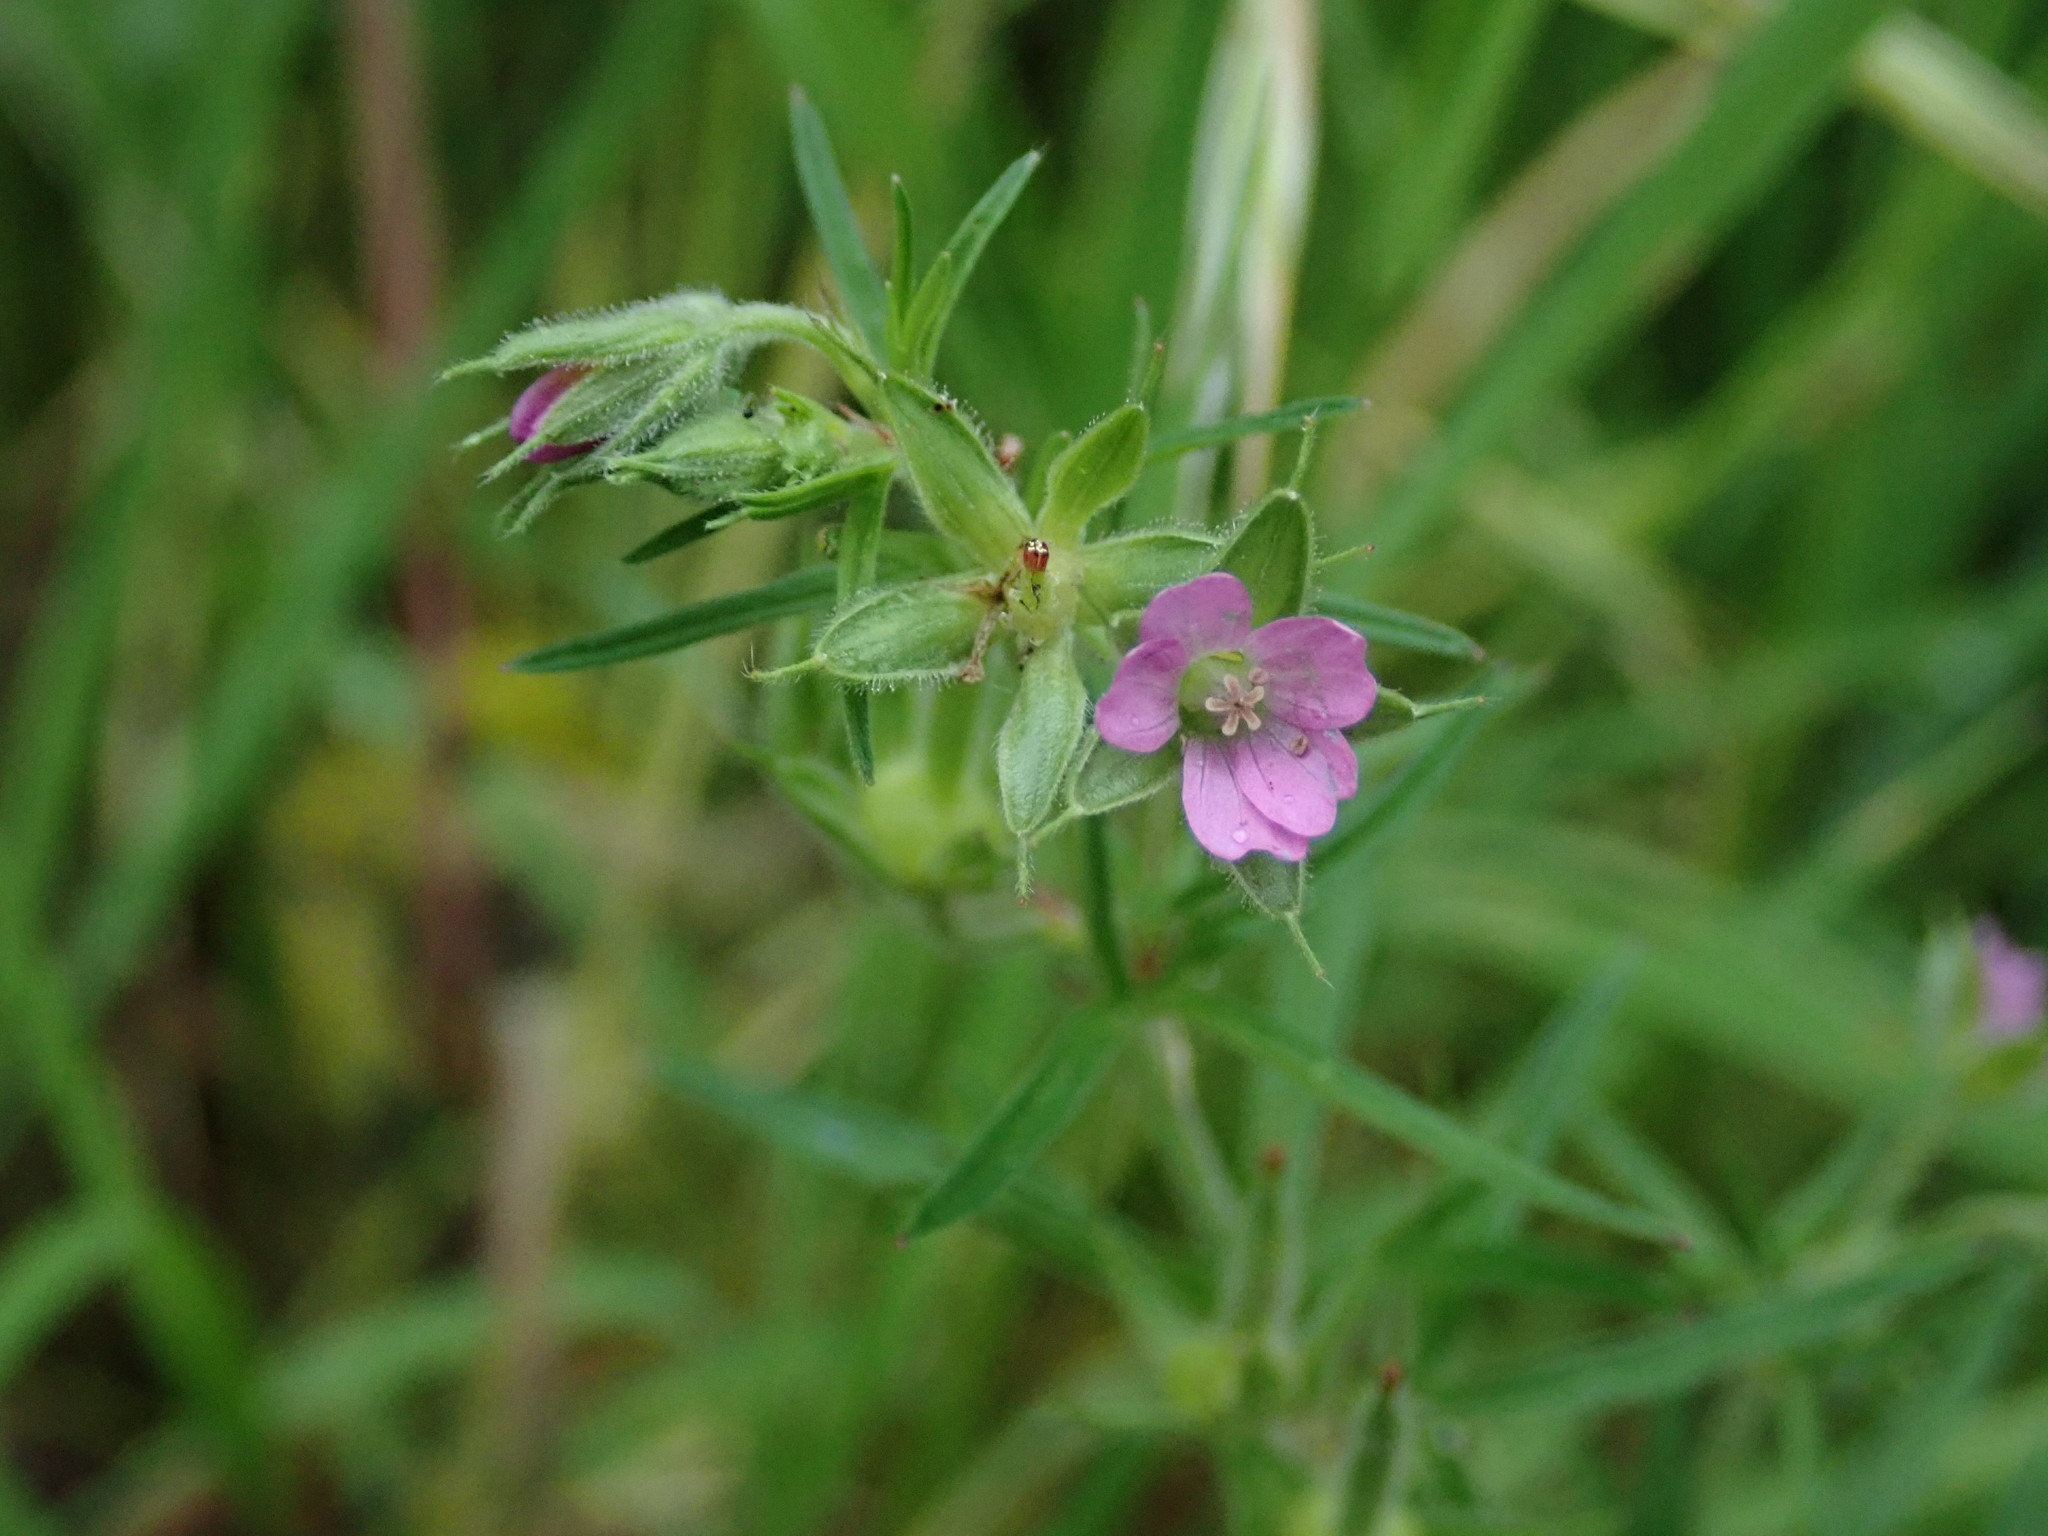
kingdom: Plantae
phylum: Tracheophyta
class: Magnoliopsida
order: Geraniales
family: Geraniaceae
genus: Geranium
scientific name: Geranium dissectum
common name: Cut-leaved crane's-bill
